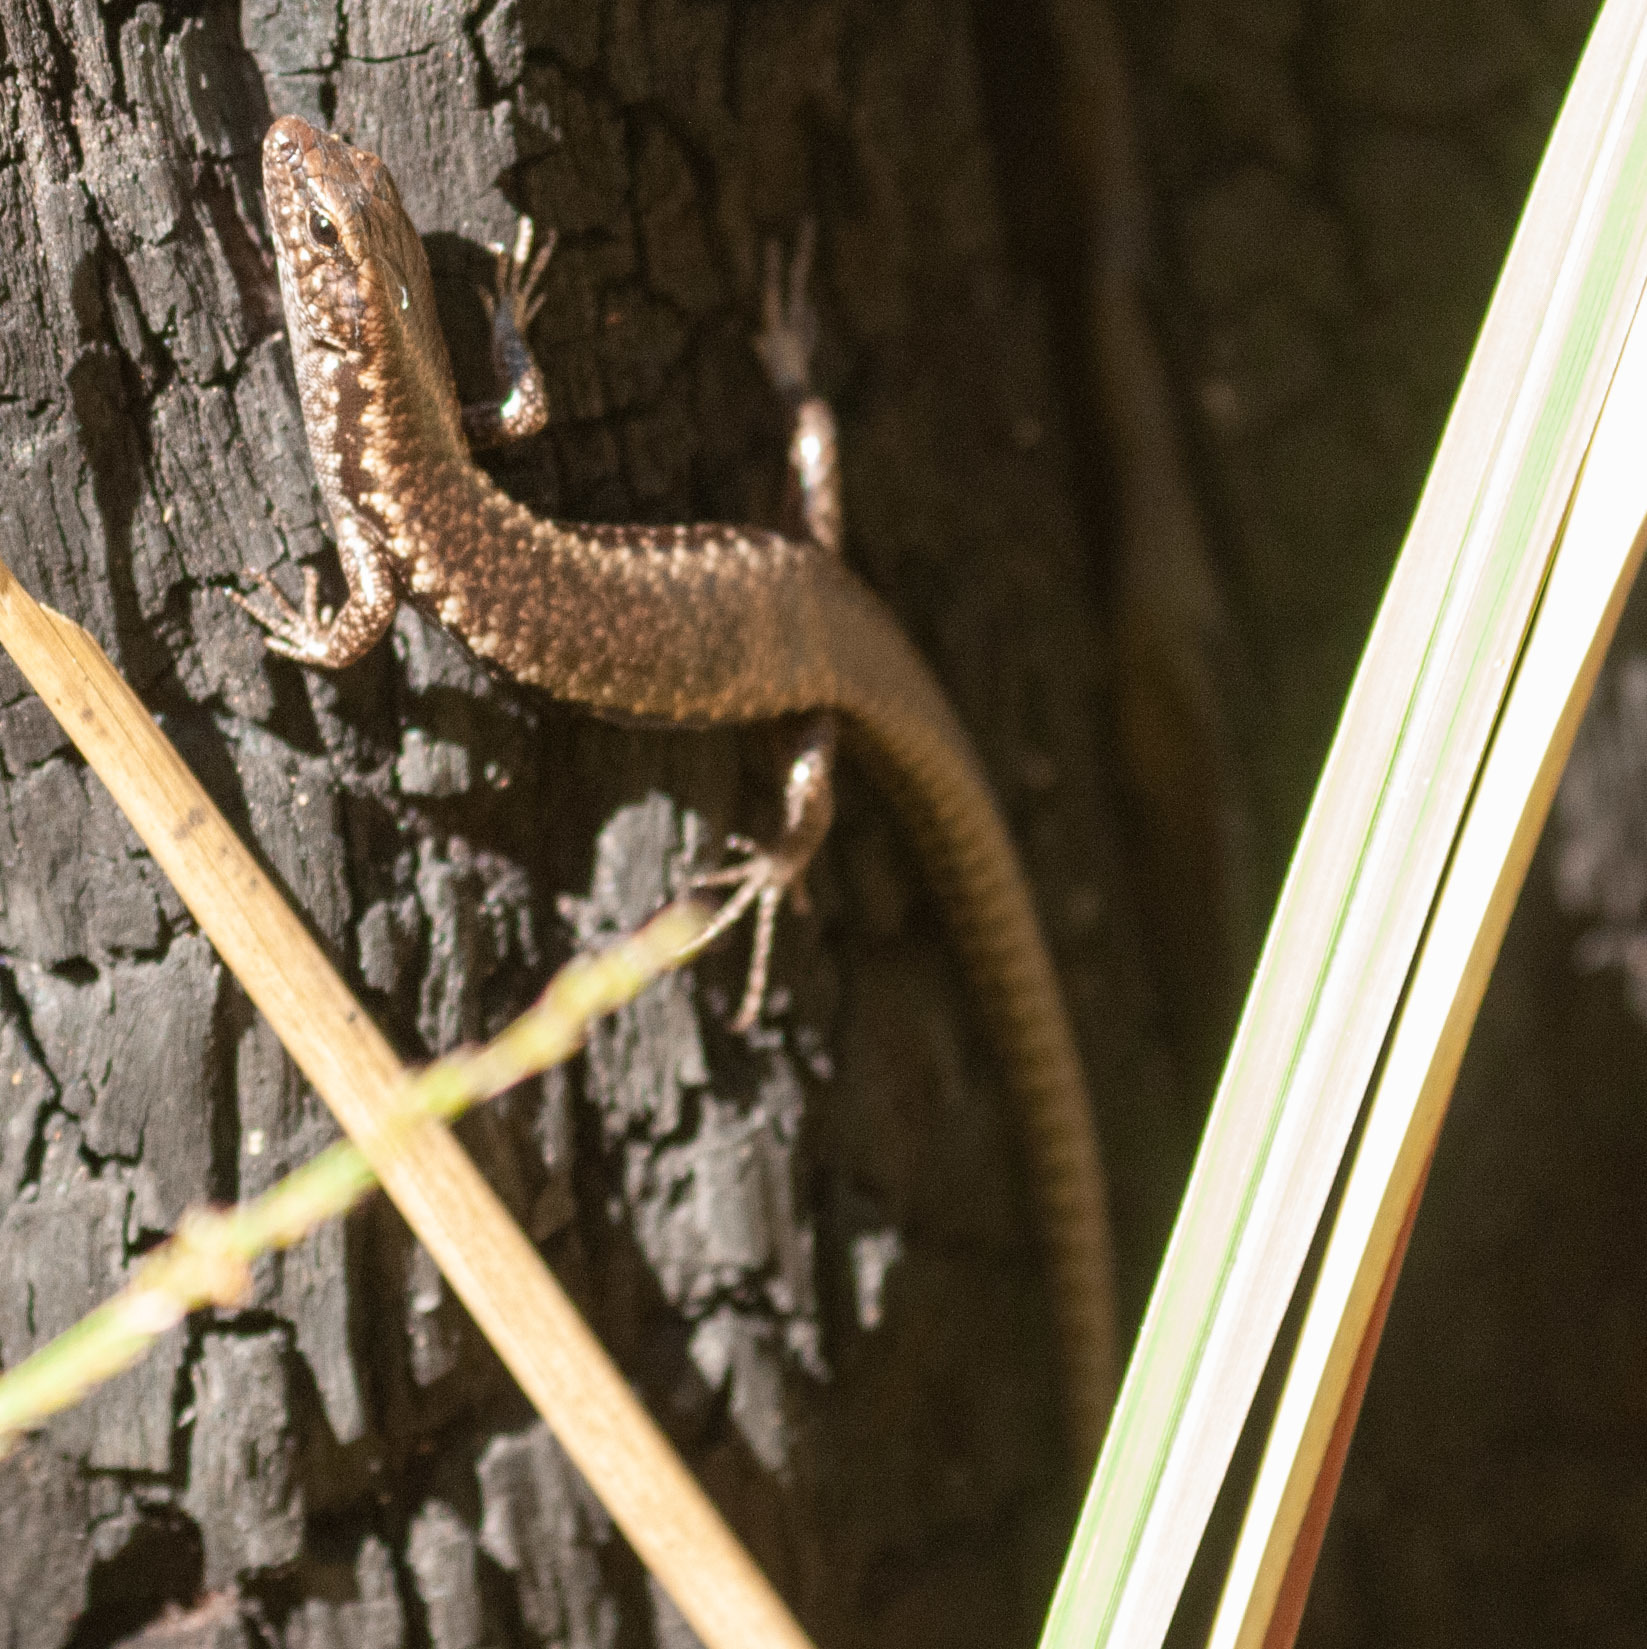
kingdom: Animalia
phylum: Chordata
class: Squamata
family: Scincidae
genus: Concinnia
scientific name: Concinnia tenuis
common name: Bar-sided forest-skink
